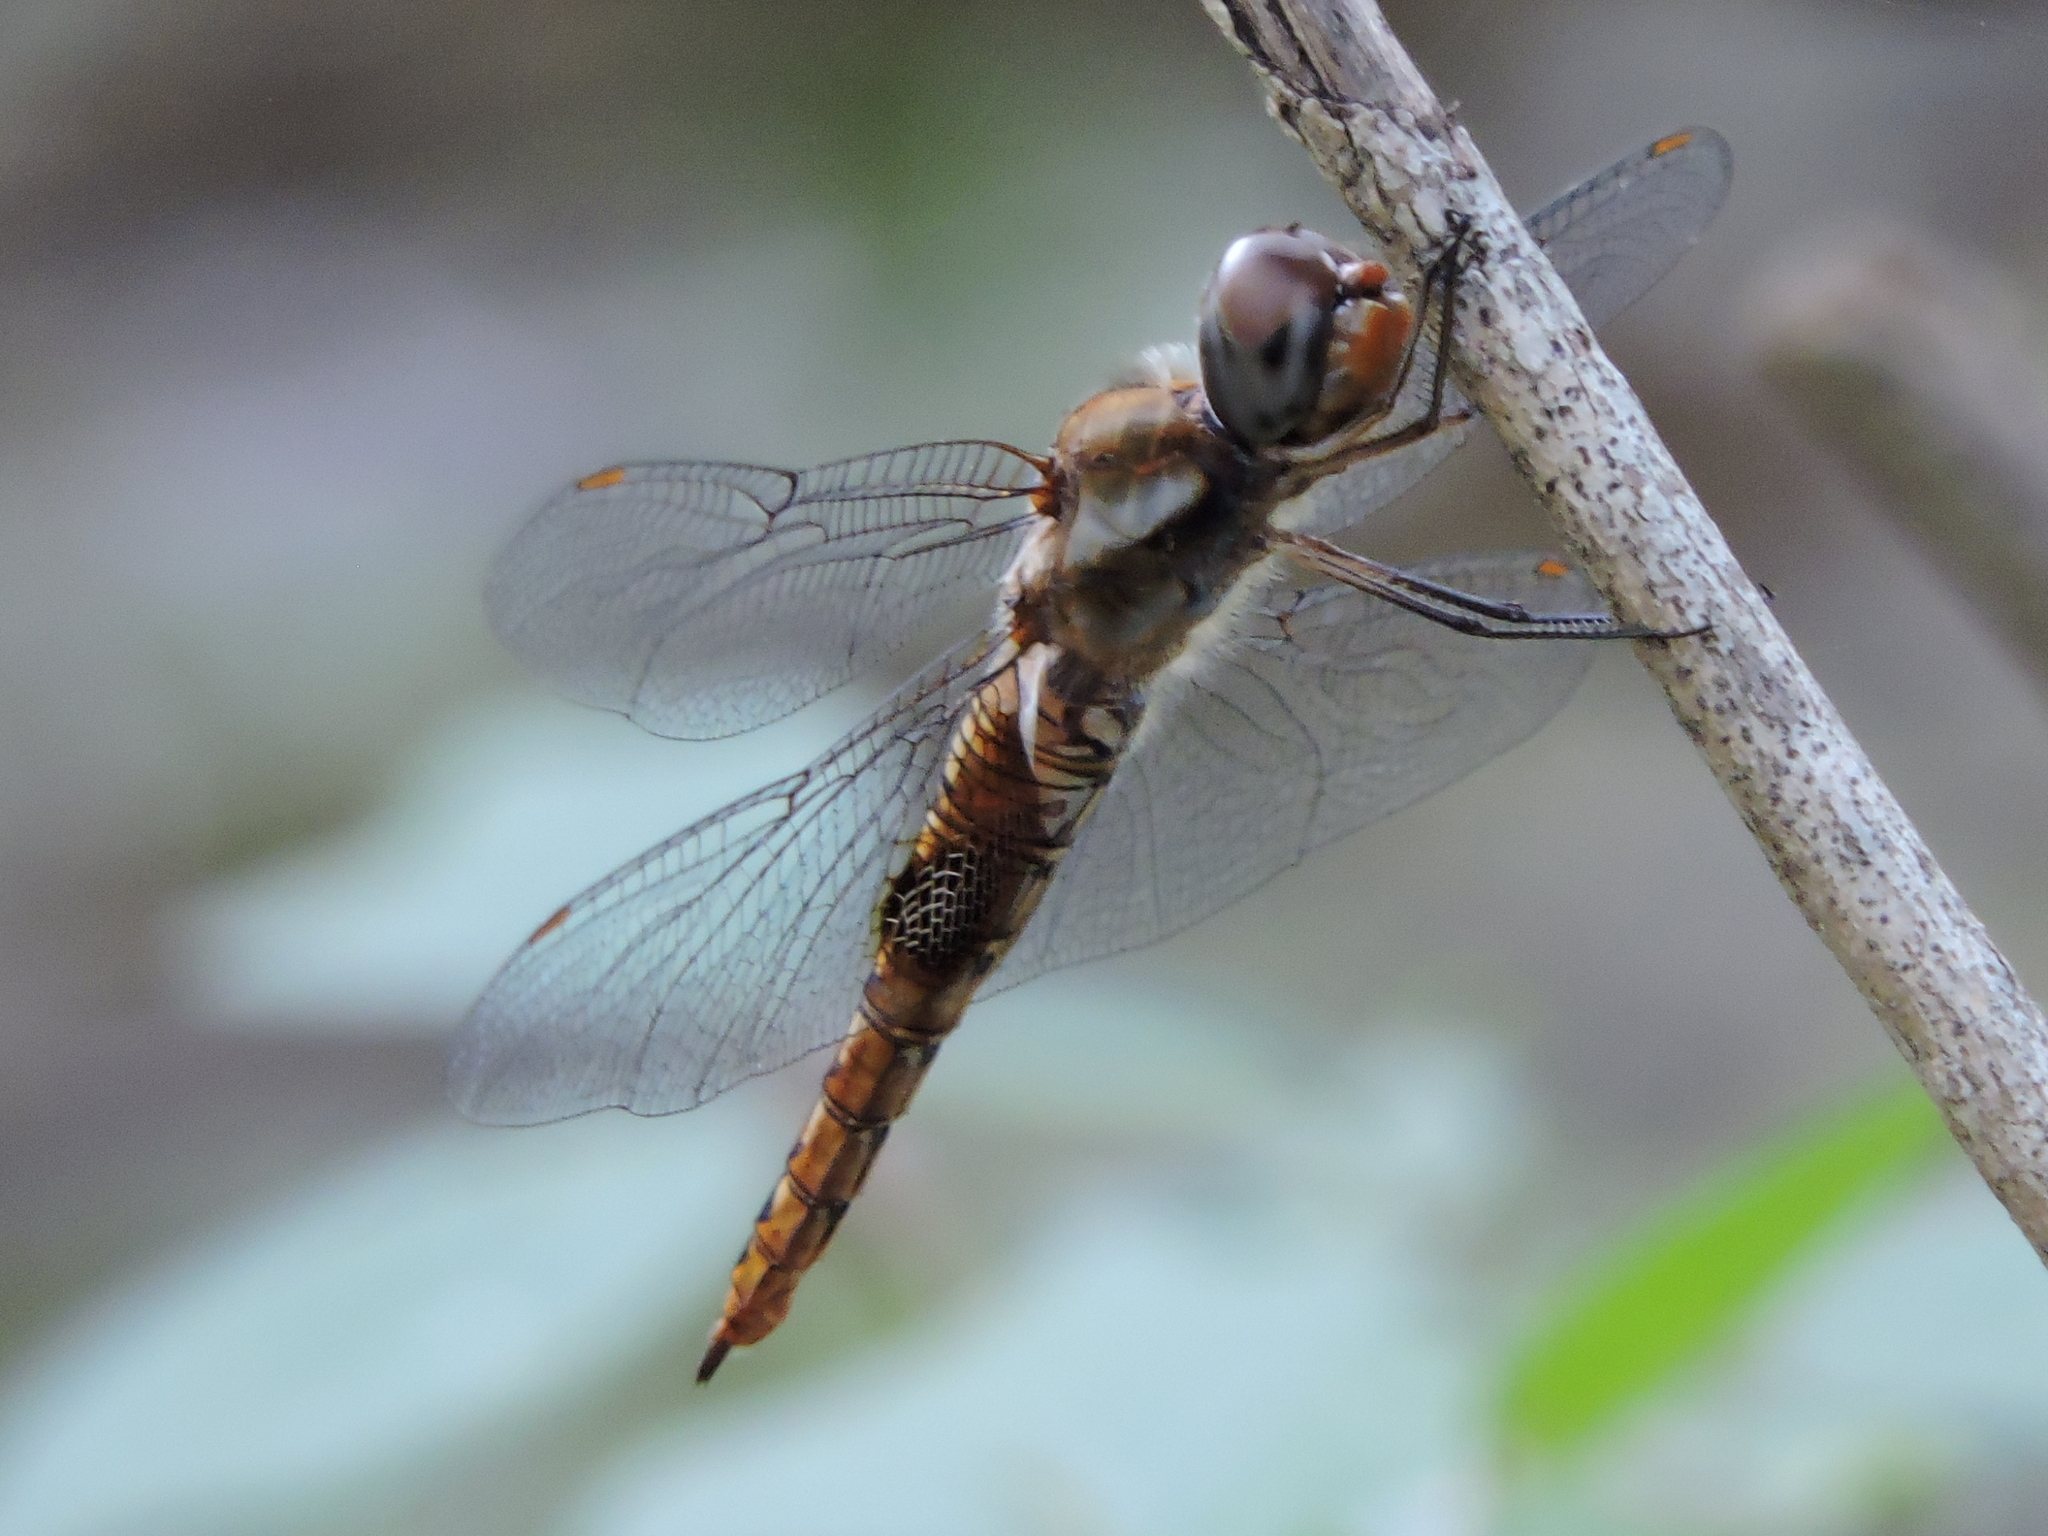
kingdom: Animalia
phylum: Arthropoda
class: Insecta
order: Odonata
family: Libellulidae
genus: Pantala
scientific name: Pantala hymenaea
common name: Spot-winged glider
